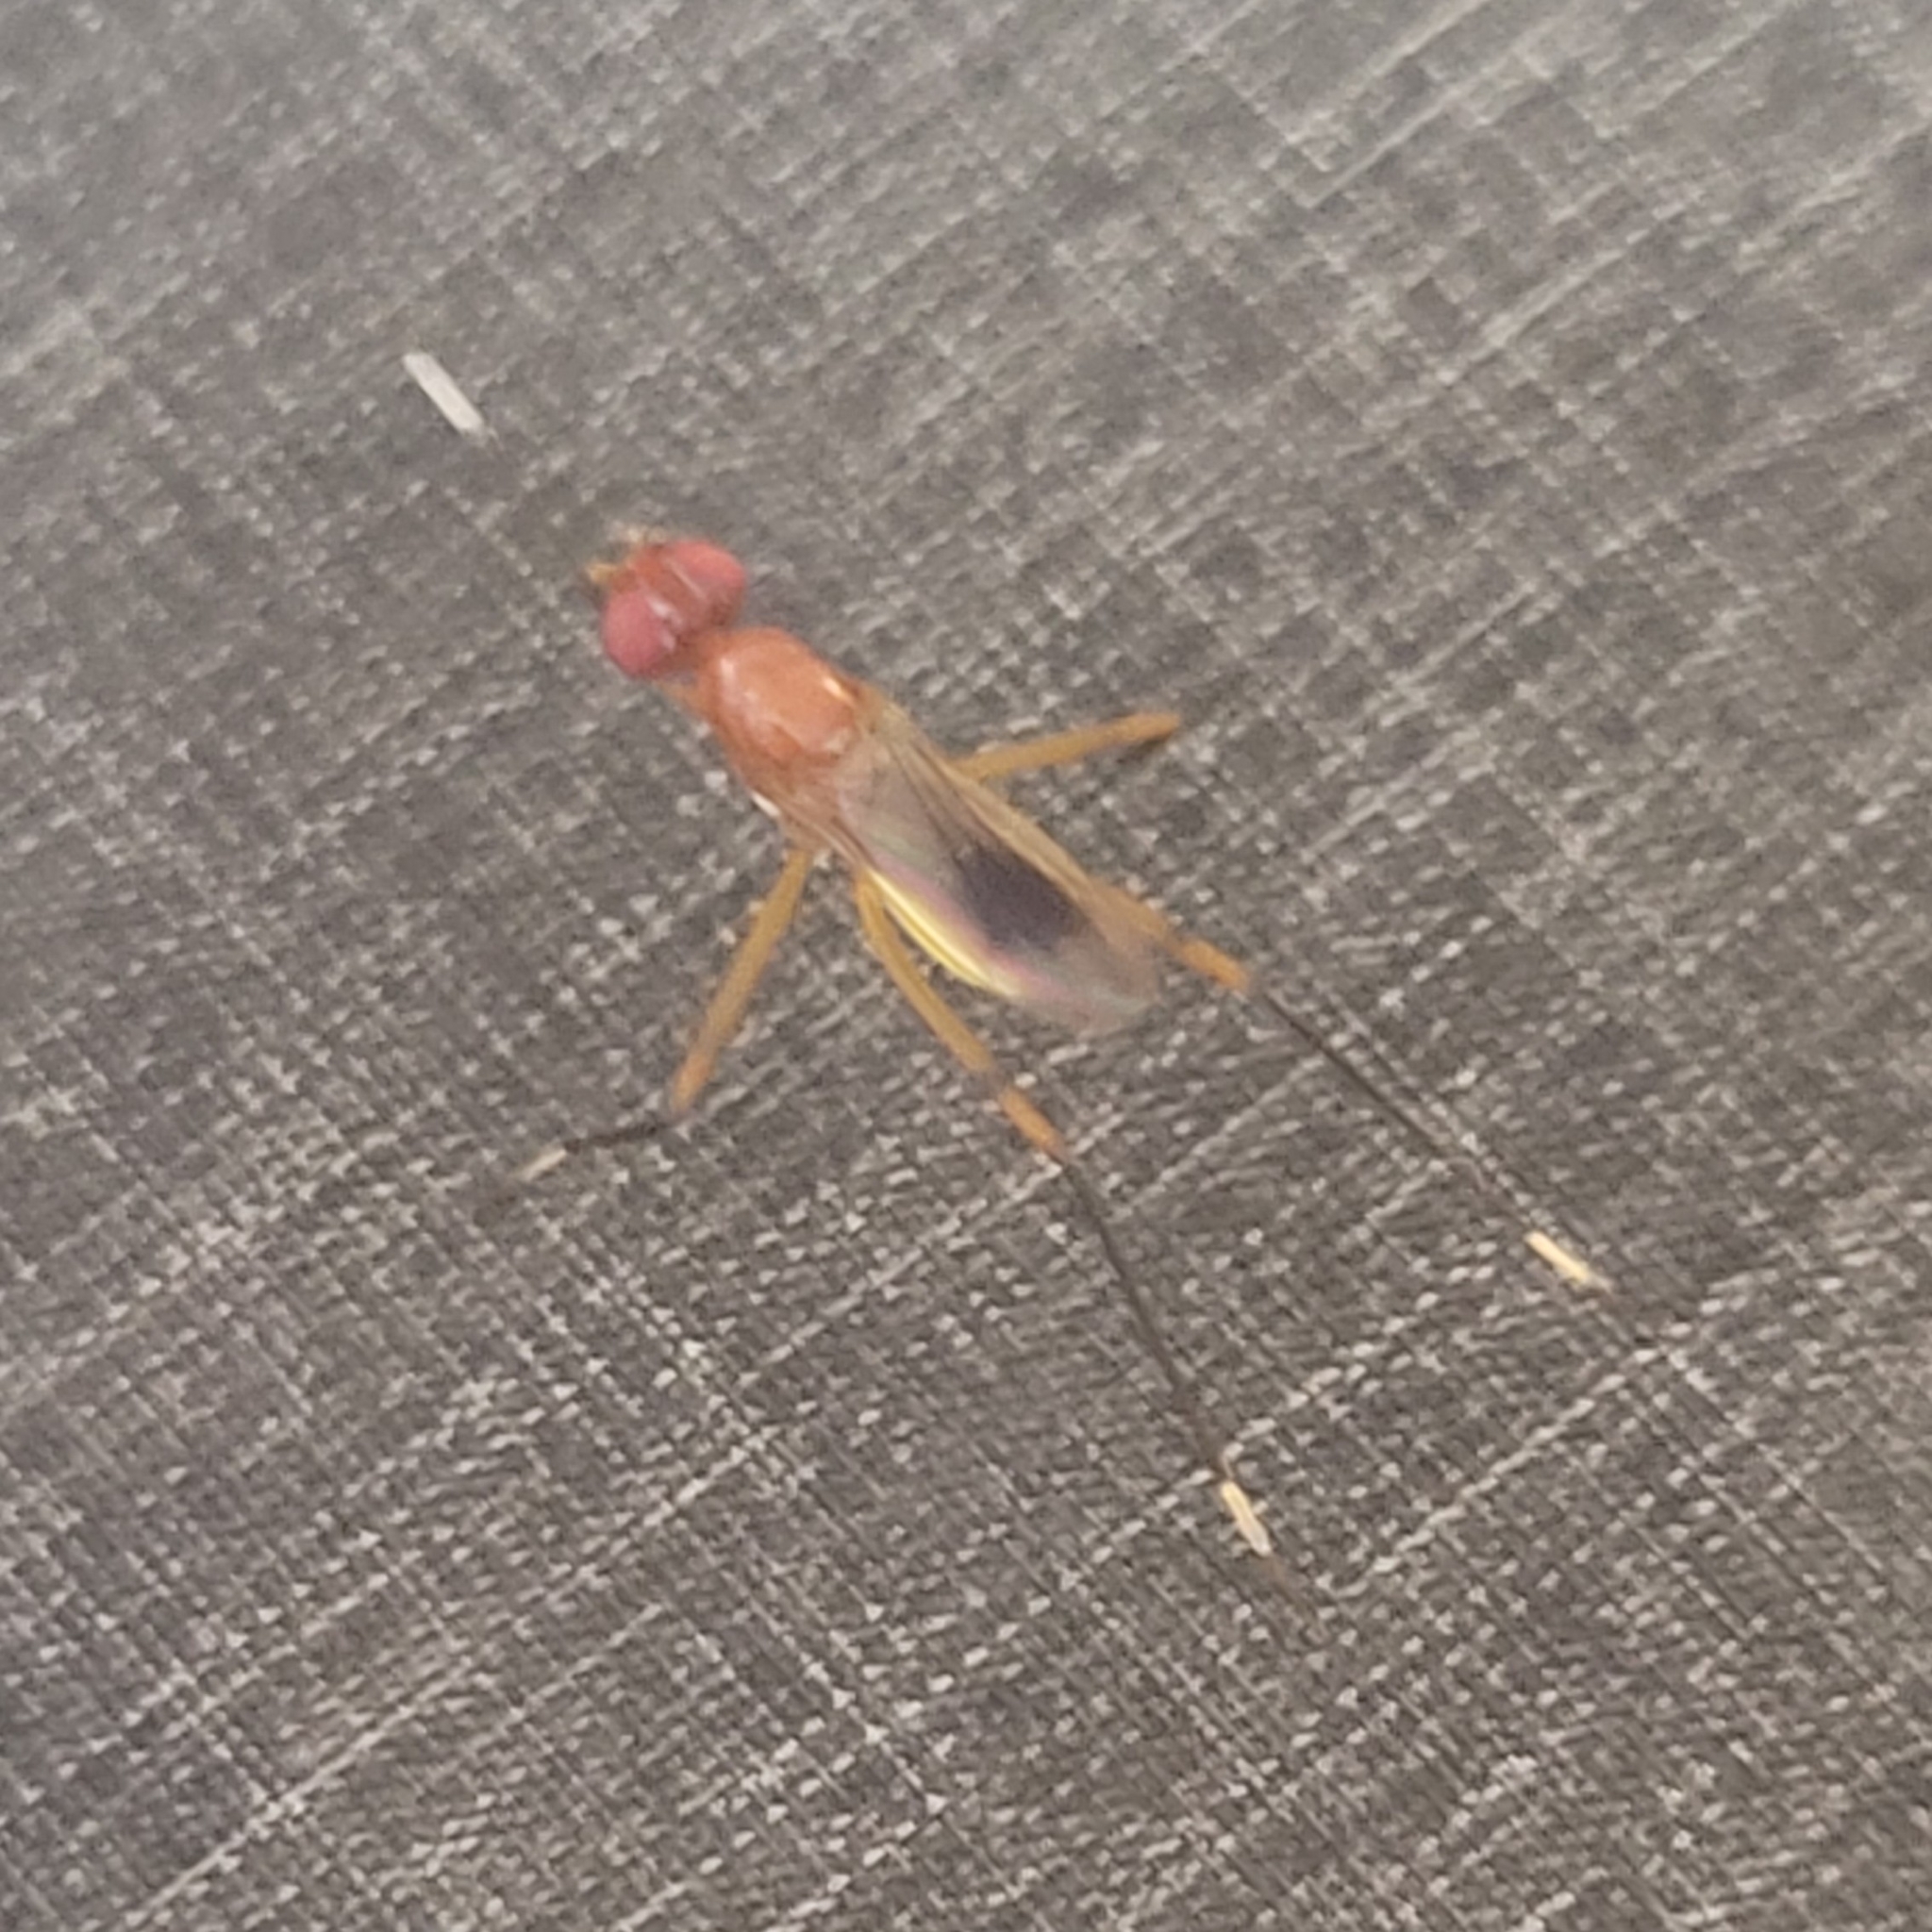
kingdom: Animalia
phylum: Arthropoda
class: Insecta
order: Diptera
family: Micropezidae
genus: Grallipeza
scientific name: Grallipeza nebulosa
